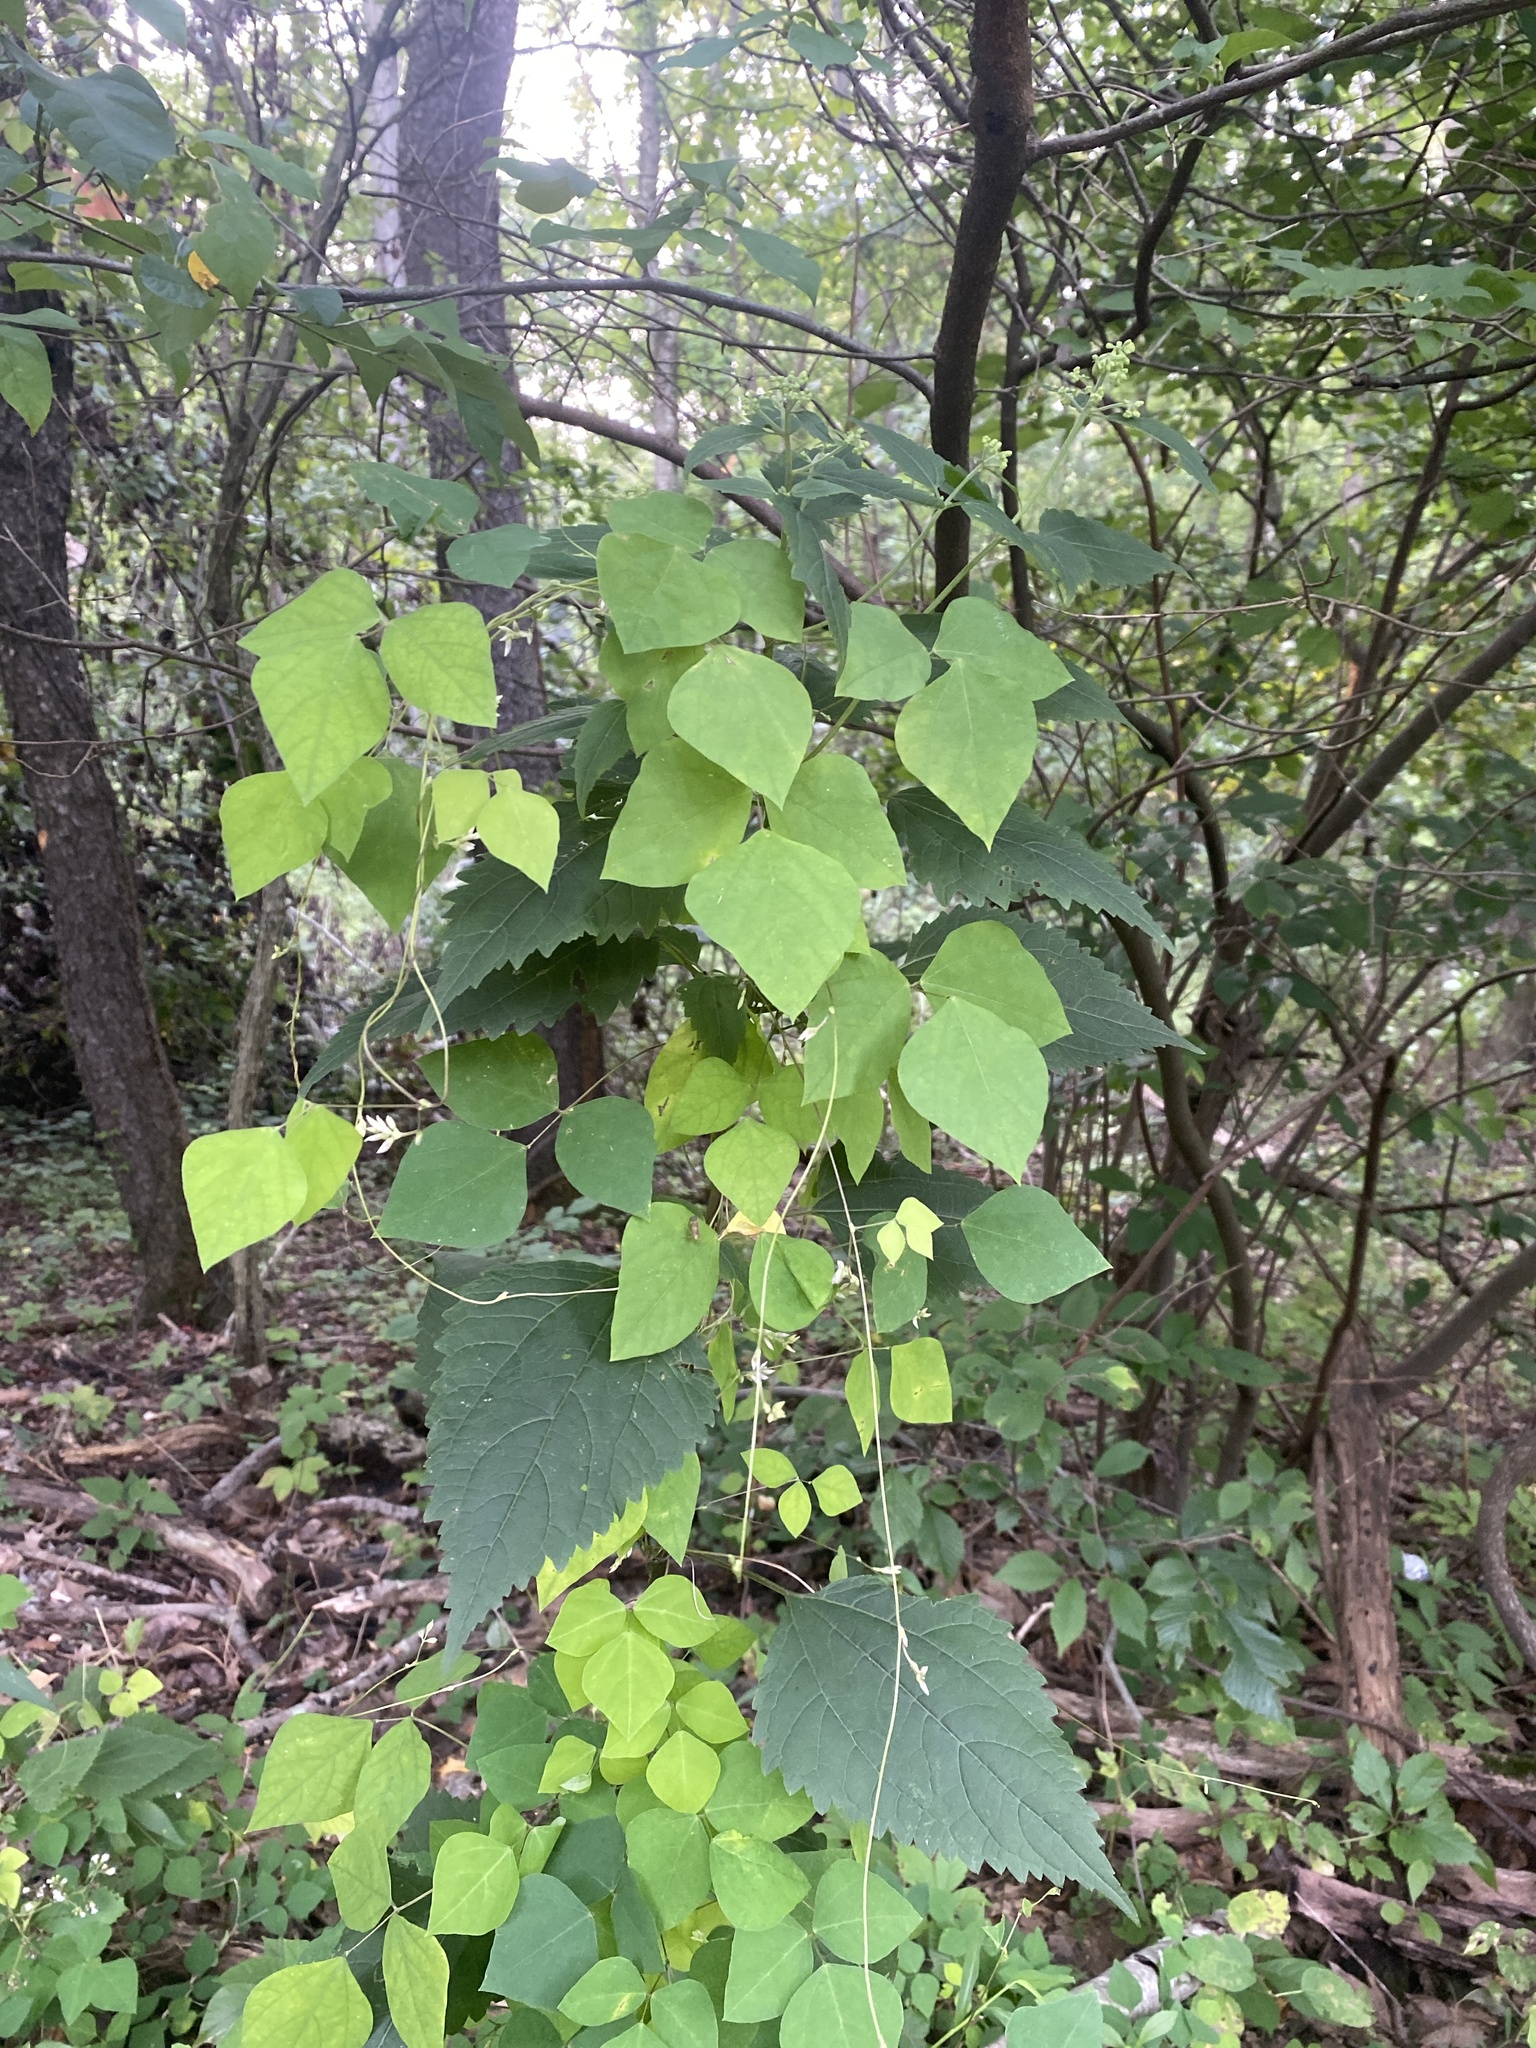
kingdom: Plantae
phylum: Tracheophyta
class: Magnoliopsida
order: Fabales
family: Fabaceae
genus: Amphicarpaea
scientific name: Amphicarpaea bracteata
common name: American hog peanut
